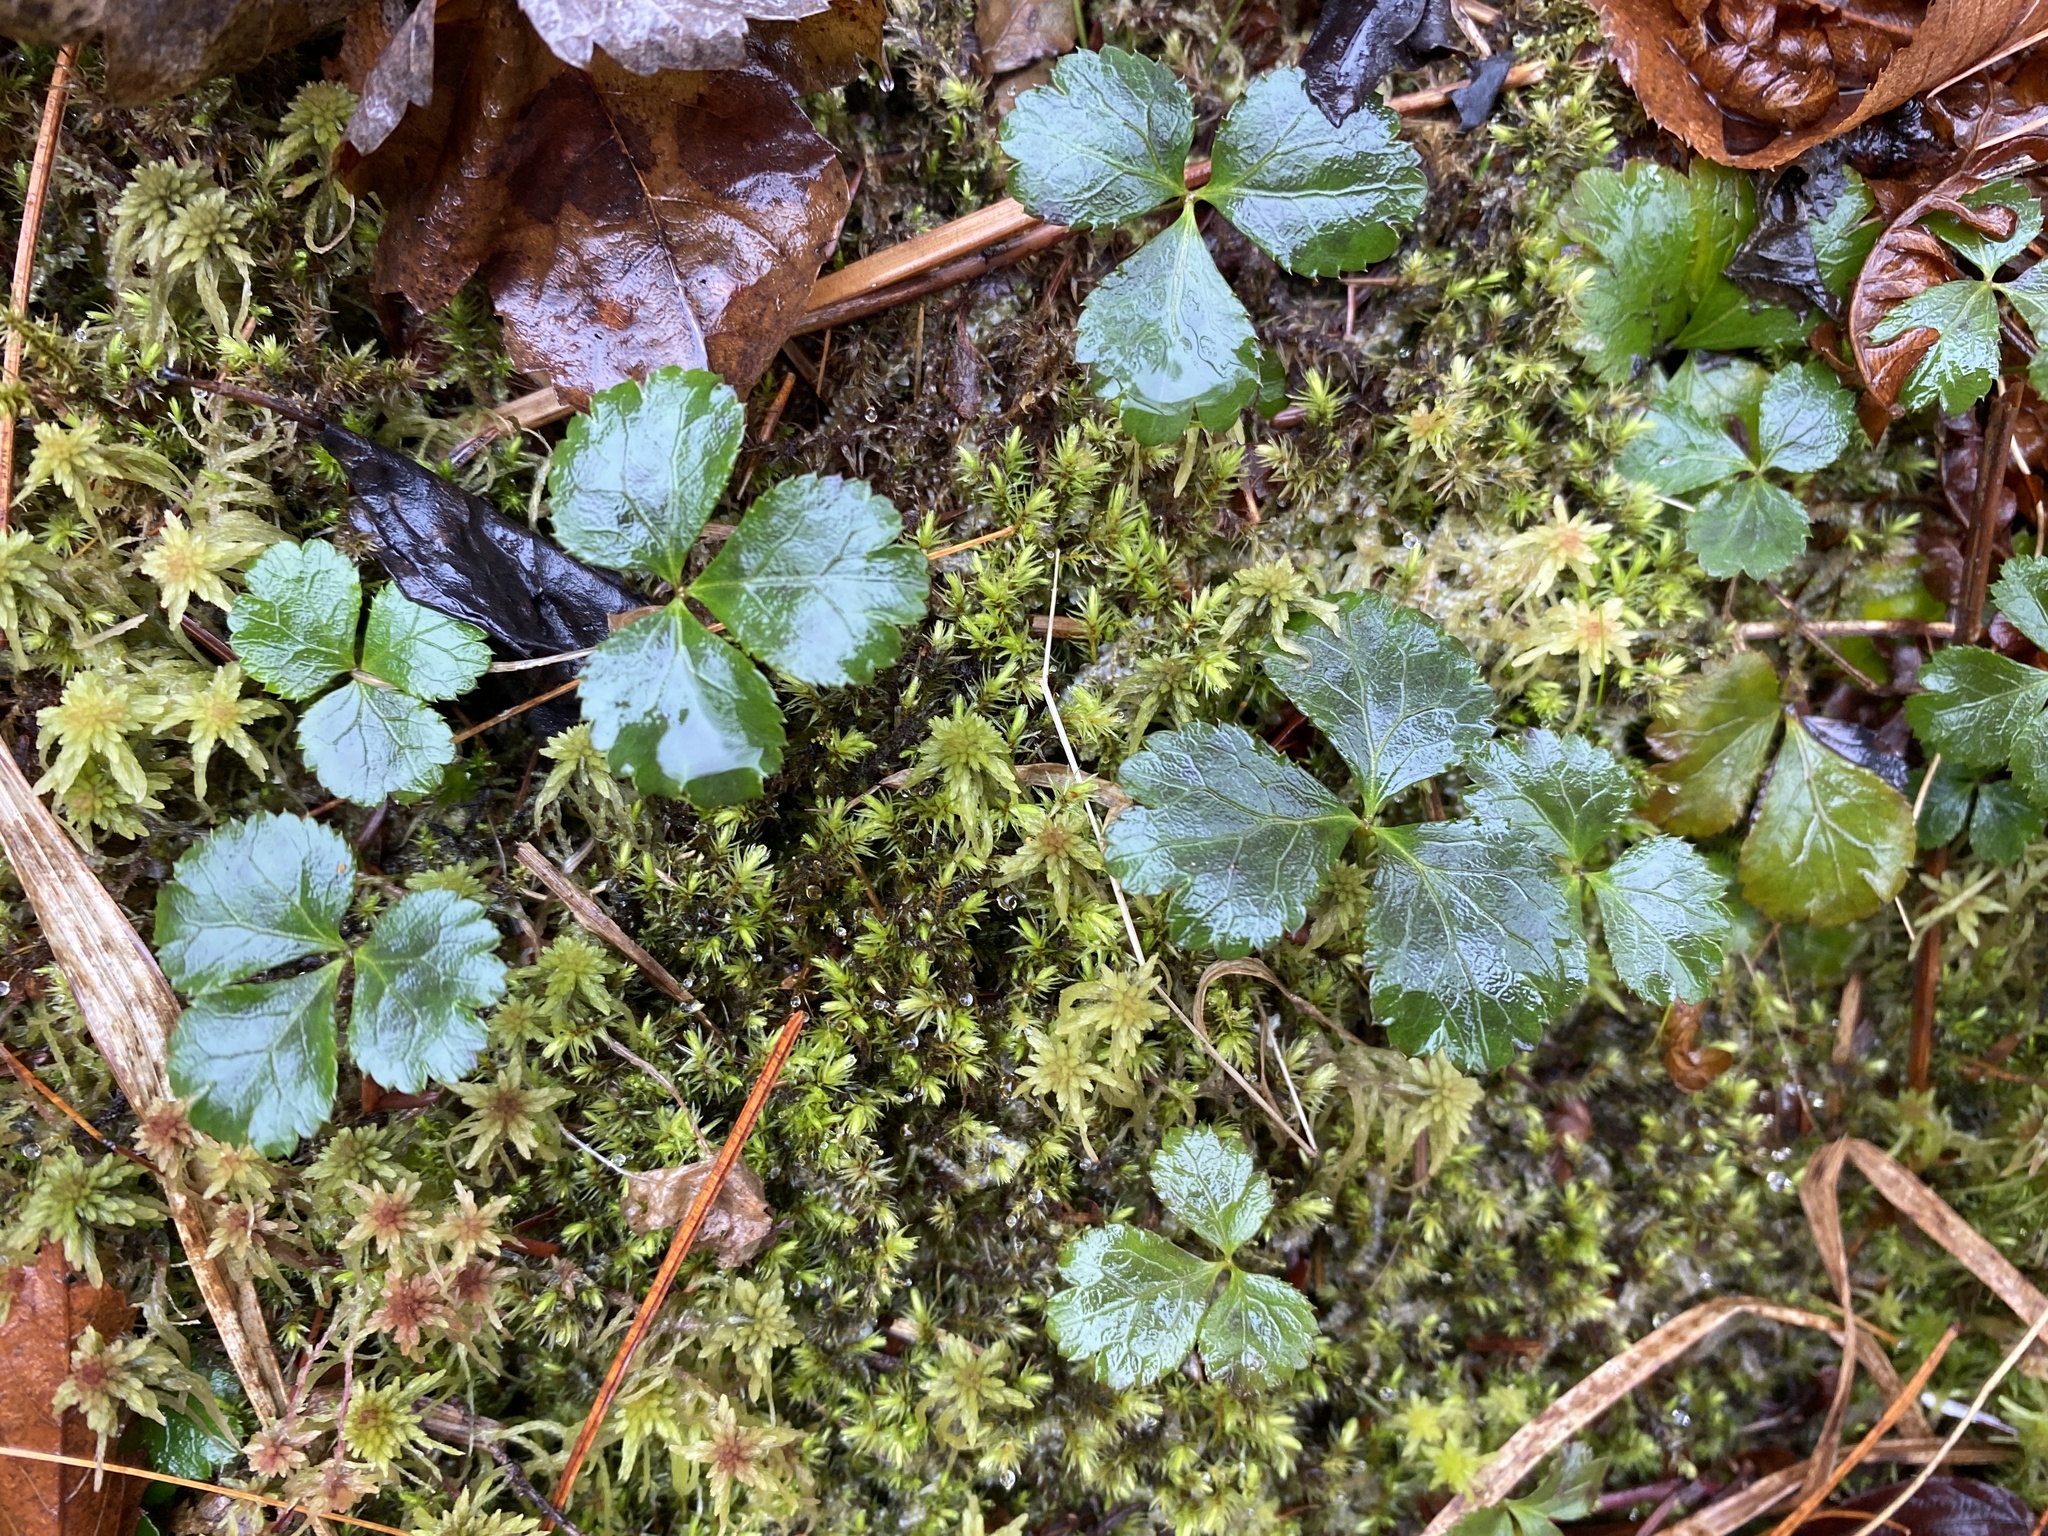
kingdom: Plantae
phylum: Tracheophyta
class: Magnoliopsida
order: Ranunculales
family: Ranunculaceae
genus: Coptis
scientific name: Coptis trifolia
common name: Canker-root
